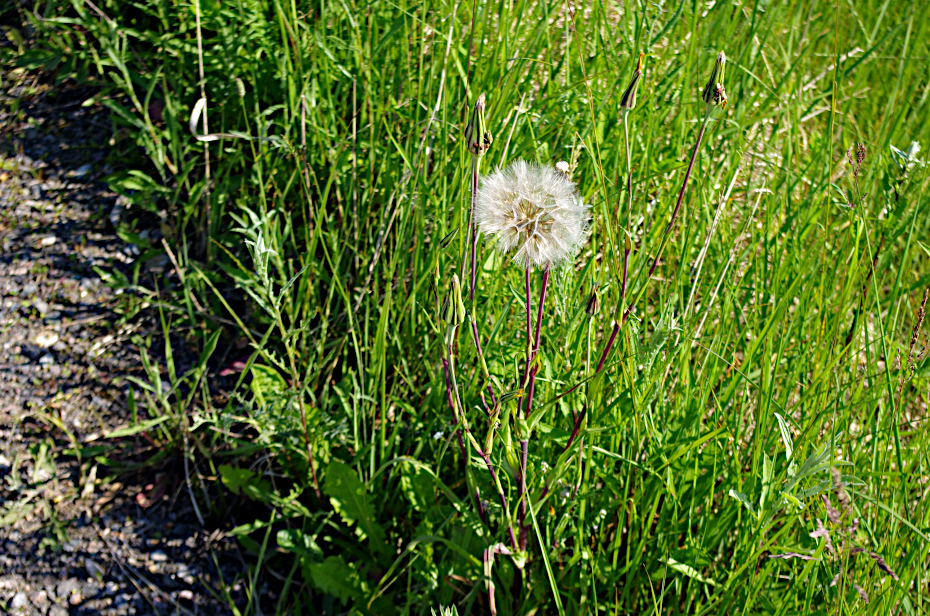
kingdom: Plantae
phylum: Tracheophyta
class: Magnoliopsida
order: Asterales
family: Asteraceae
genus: Tragopogon
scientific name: Tragopogon orientalis
